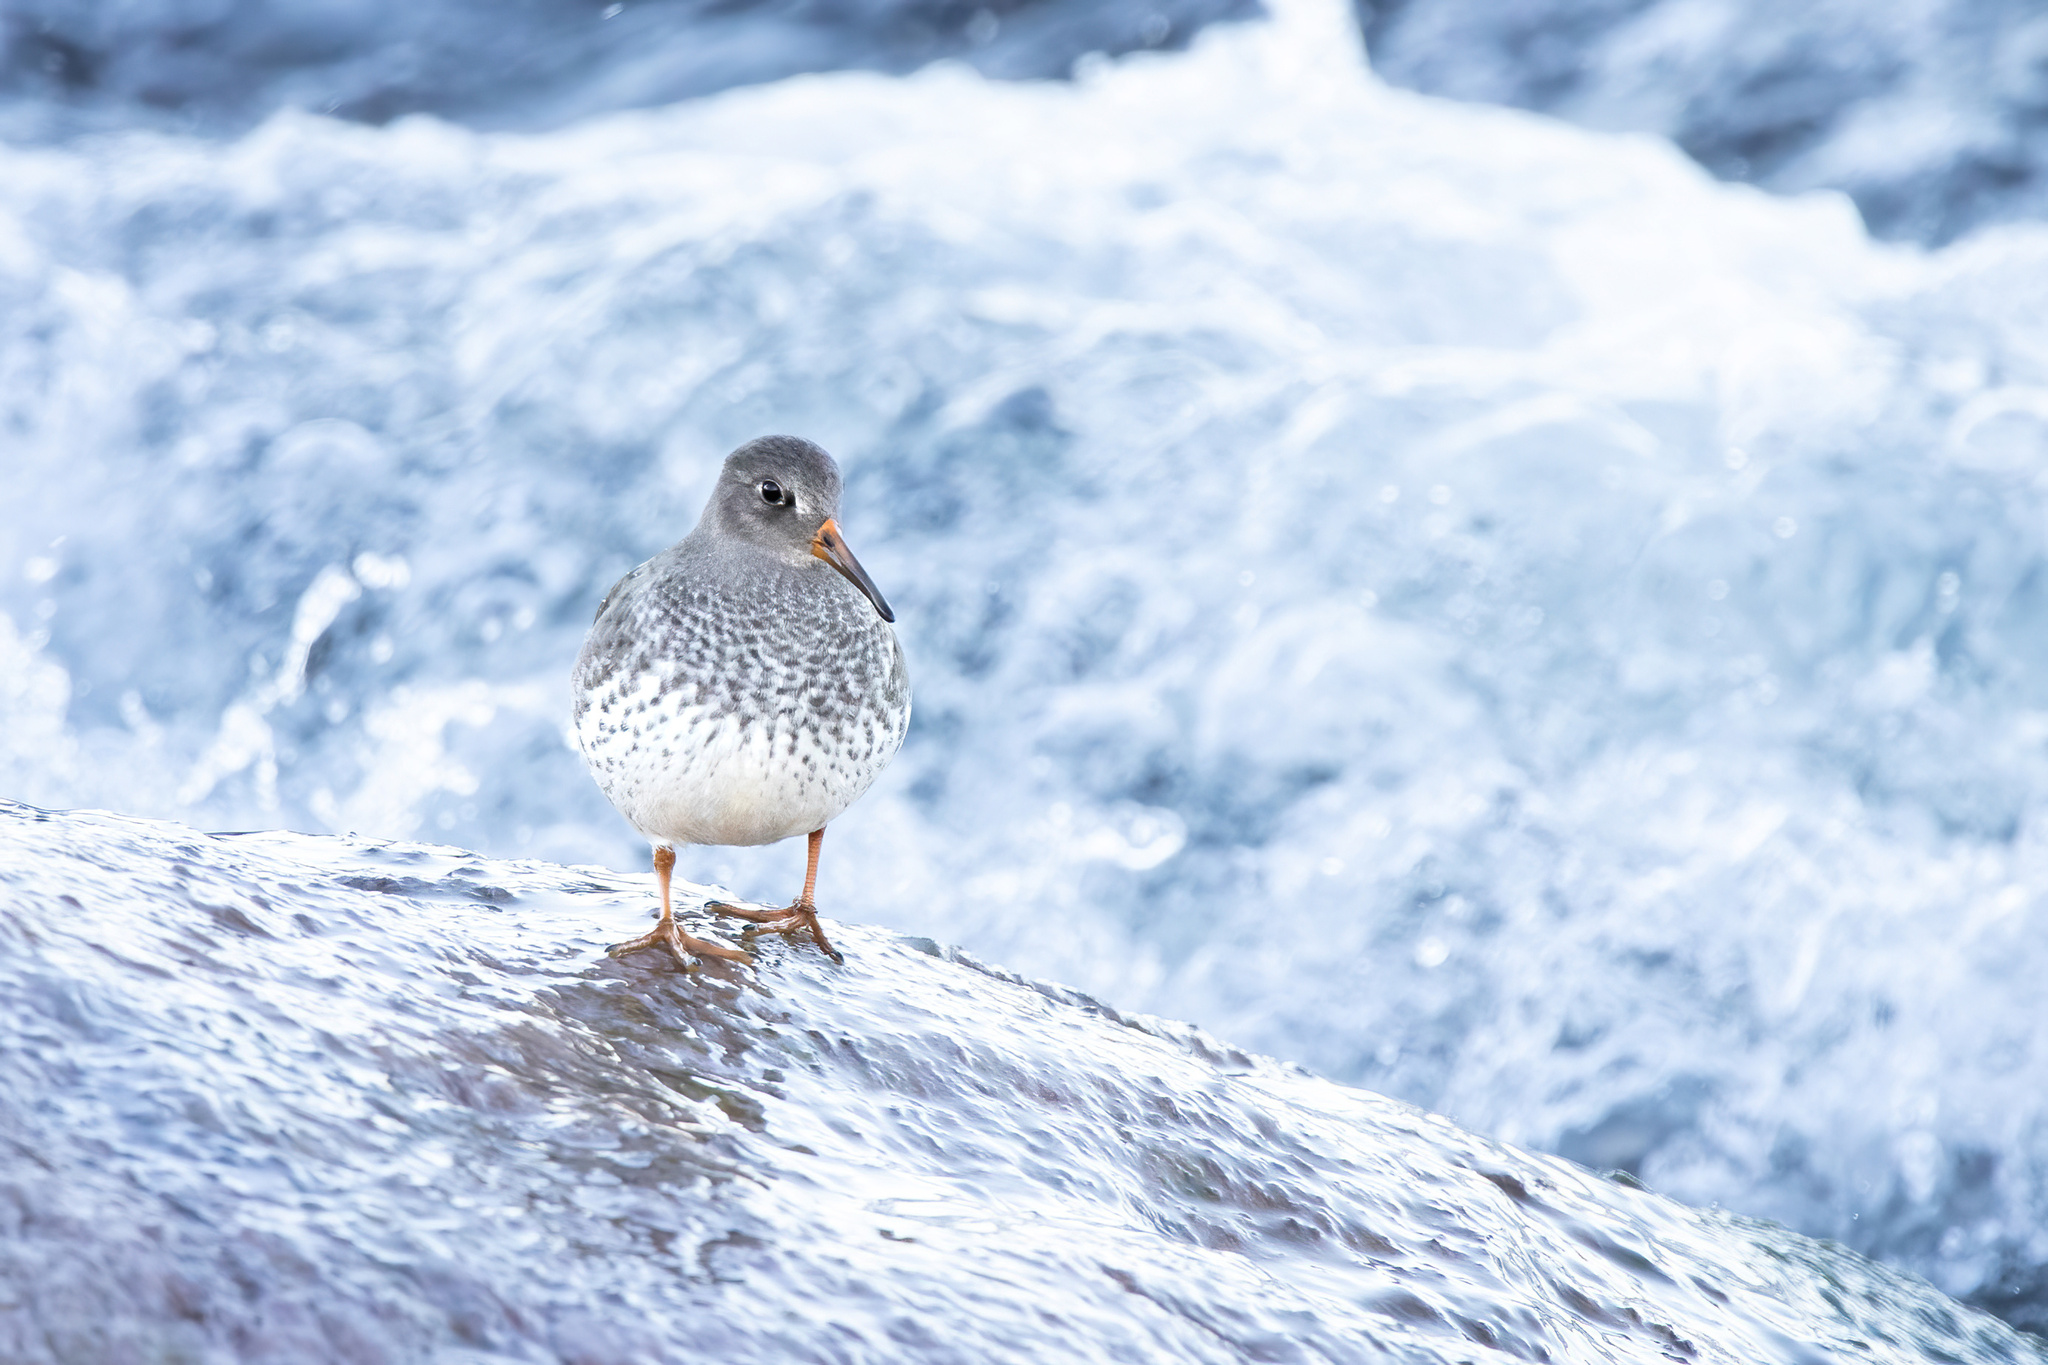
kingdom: Animalia
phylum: Chordata
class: Aves
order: Charadriiformes
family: Scolopacidae
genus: Calidris
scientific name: Calidris maritima
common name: Purple sandpiper
